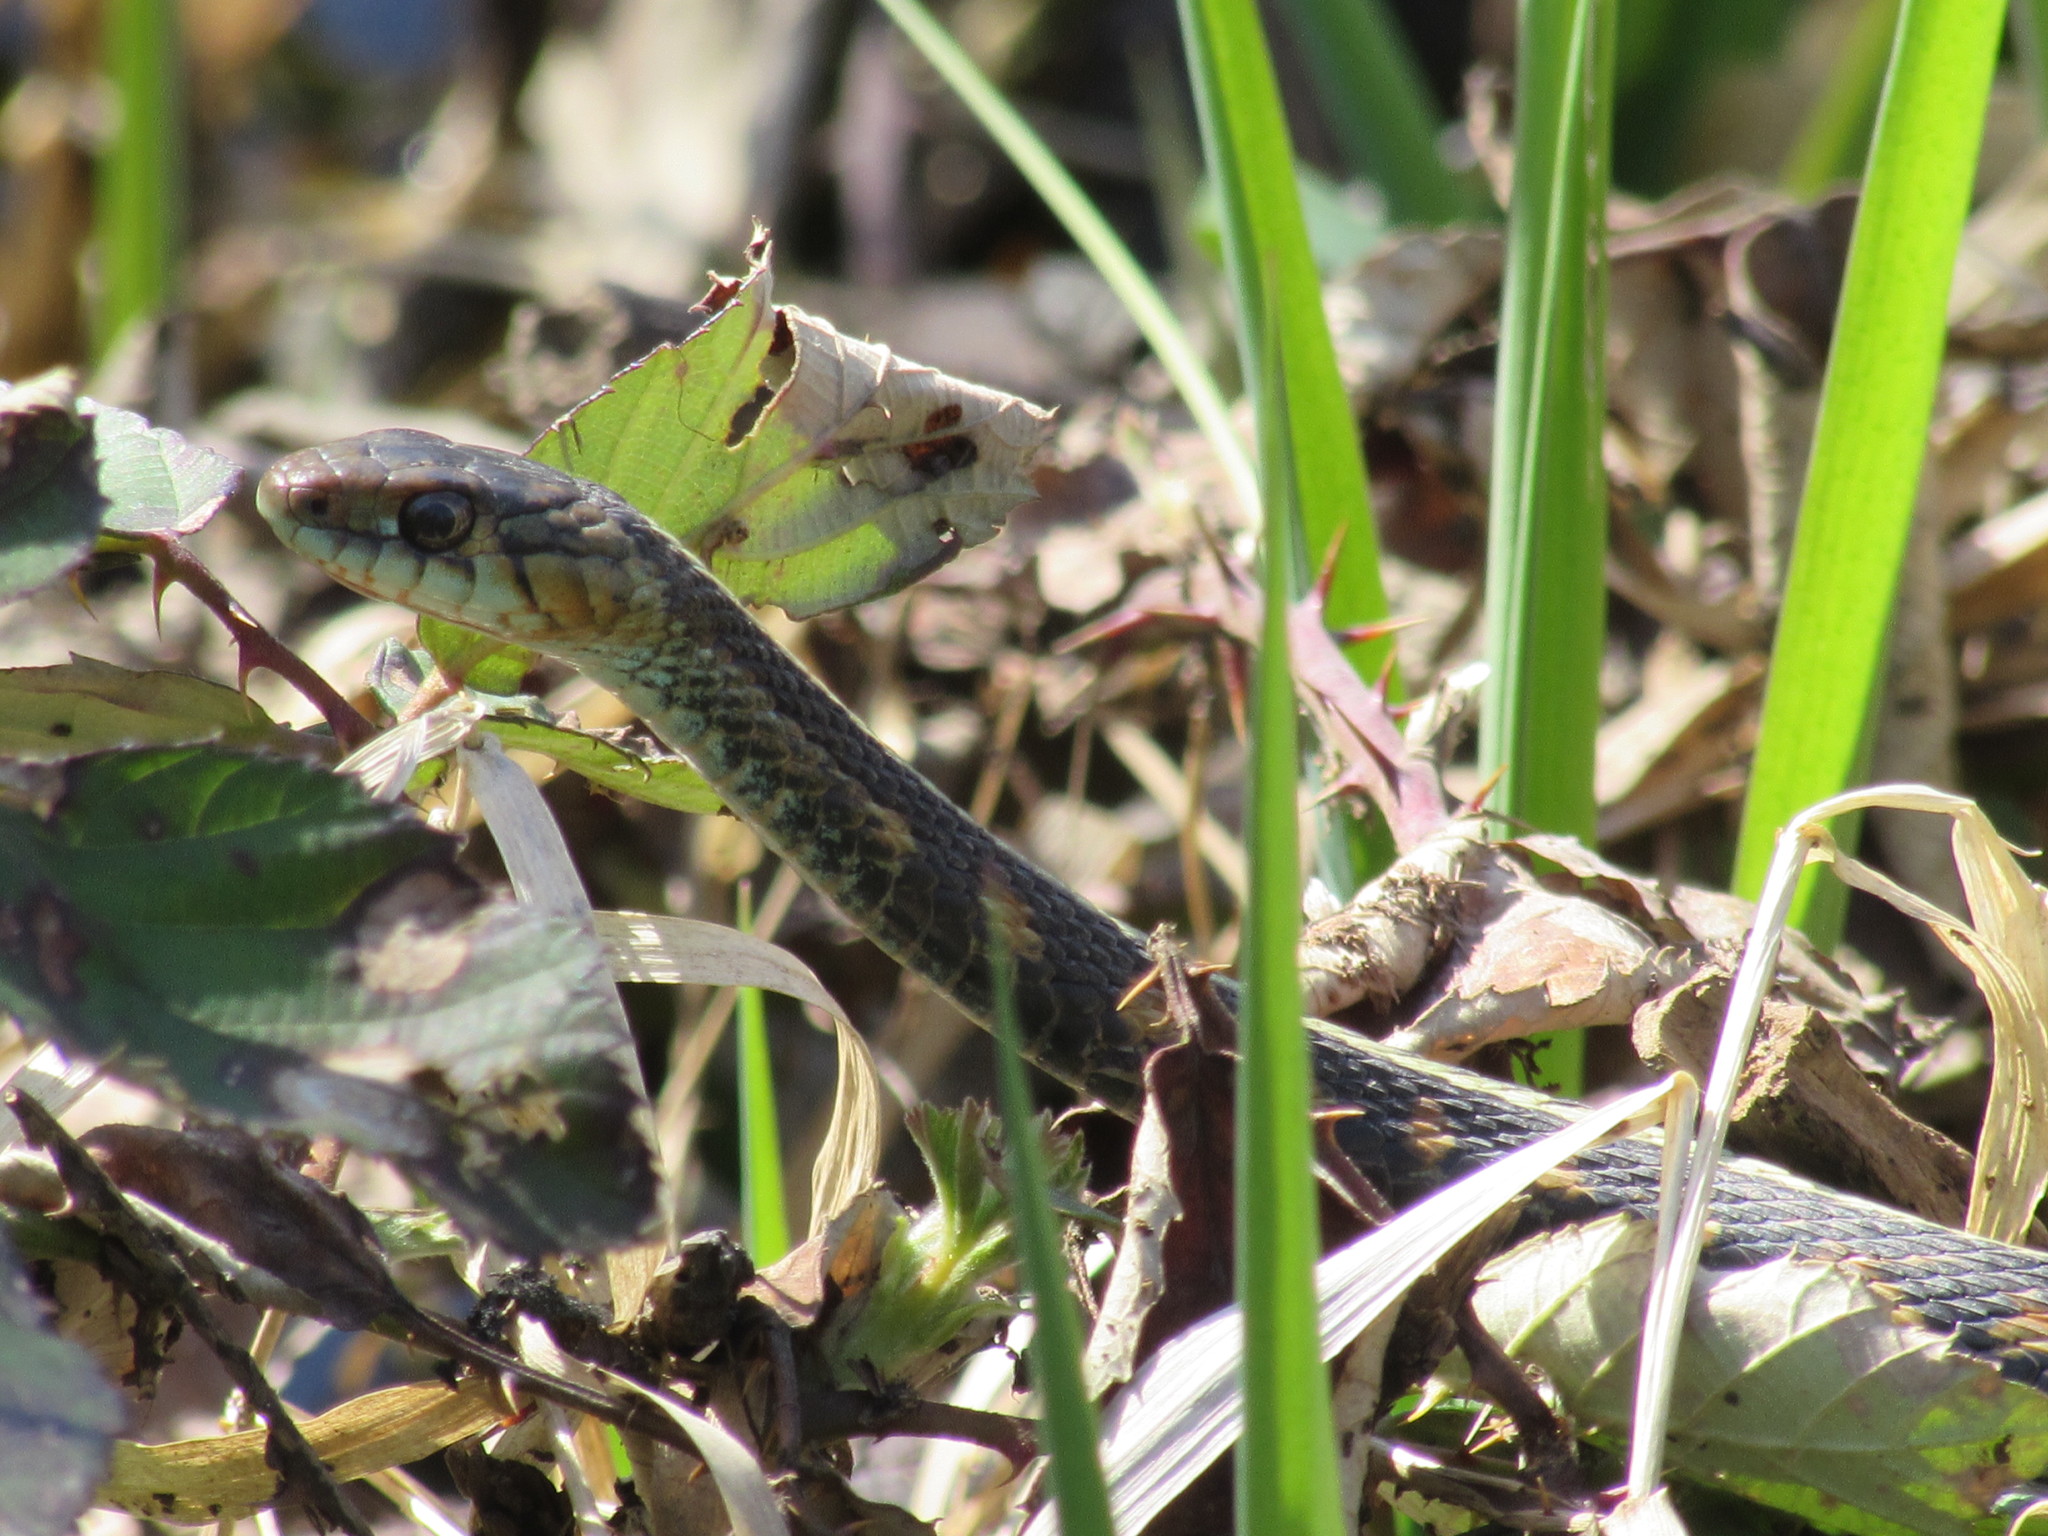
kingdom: Animalia
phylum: Chordata
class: Squamata
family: Colubridae
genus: Thamnophis
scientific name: Thamnophis sirtalis
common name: Common garter snake
